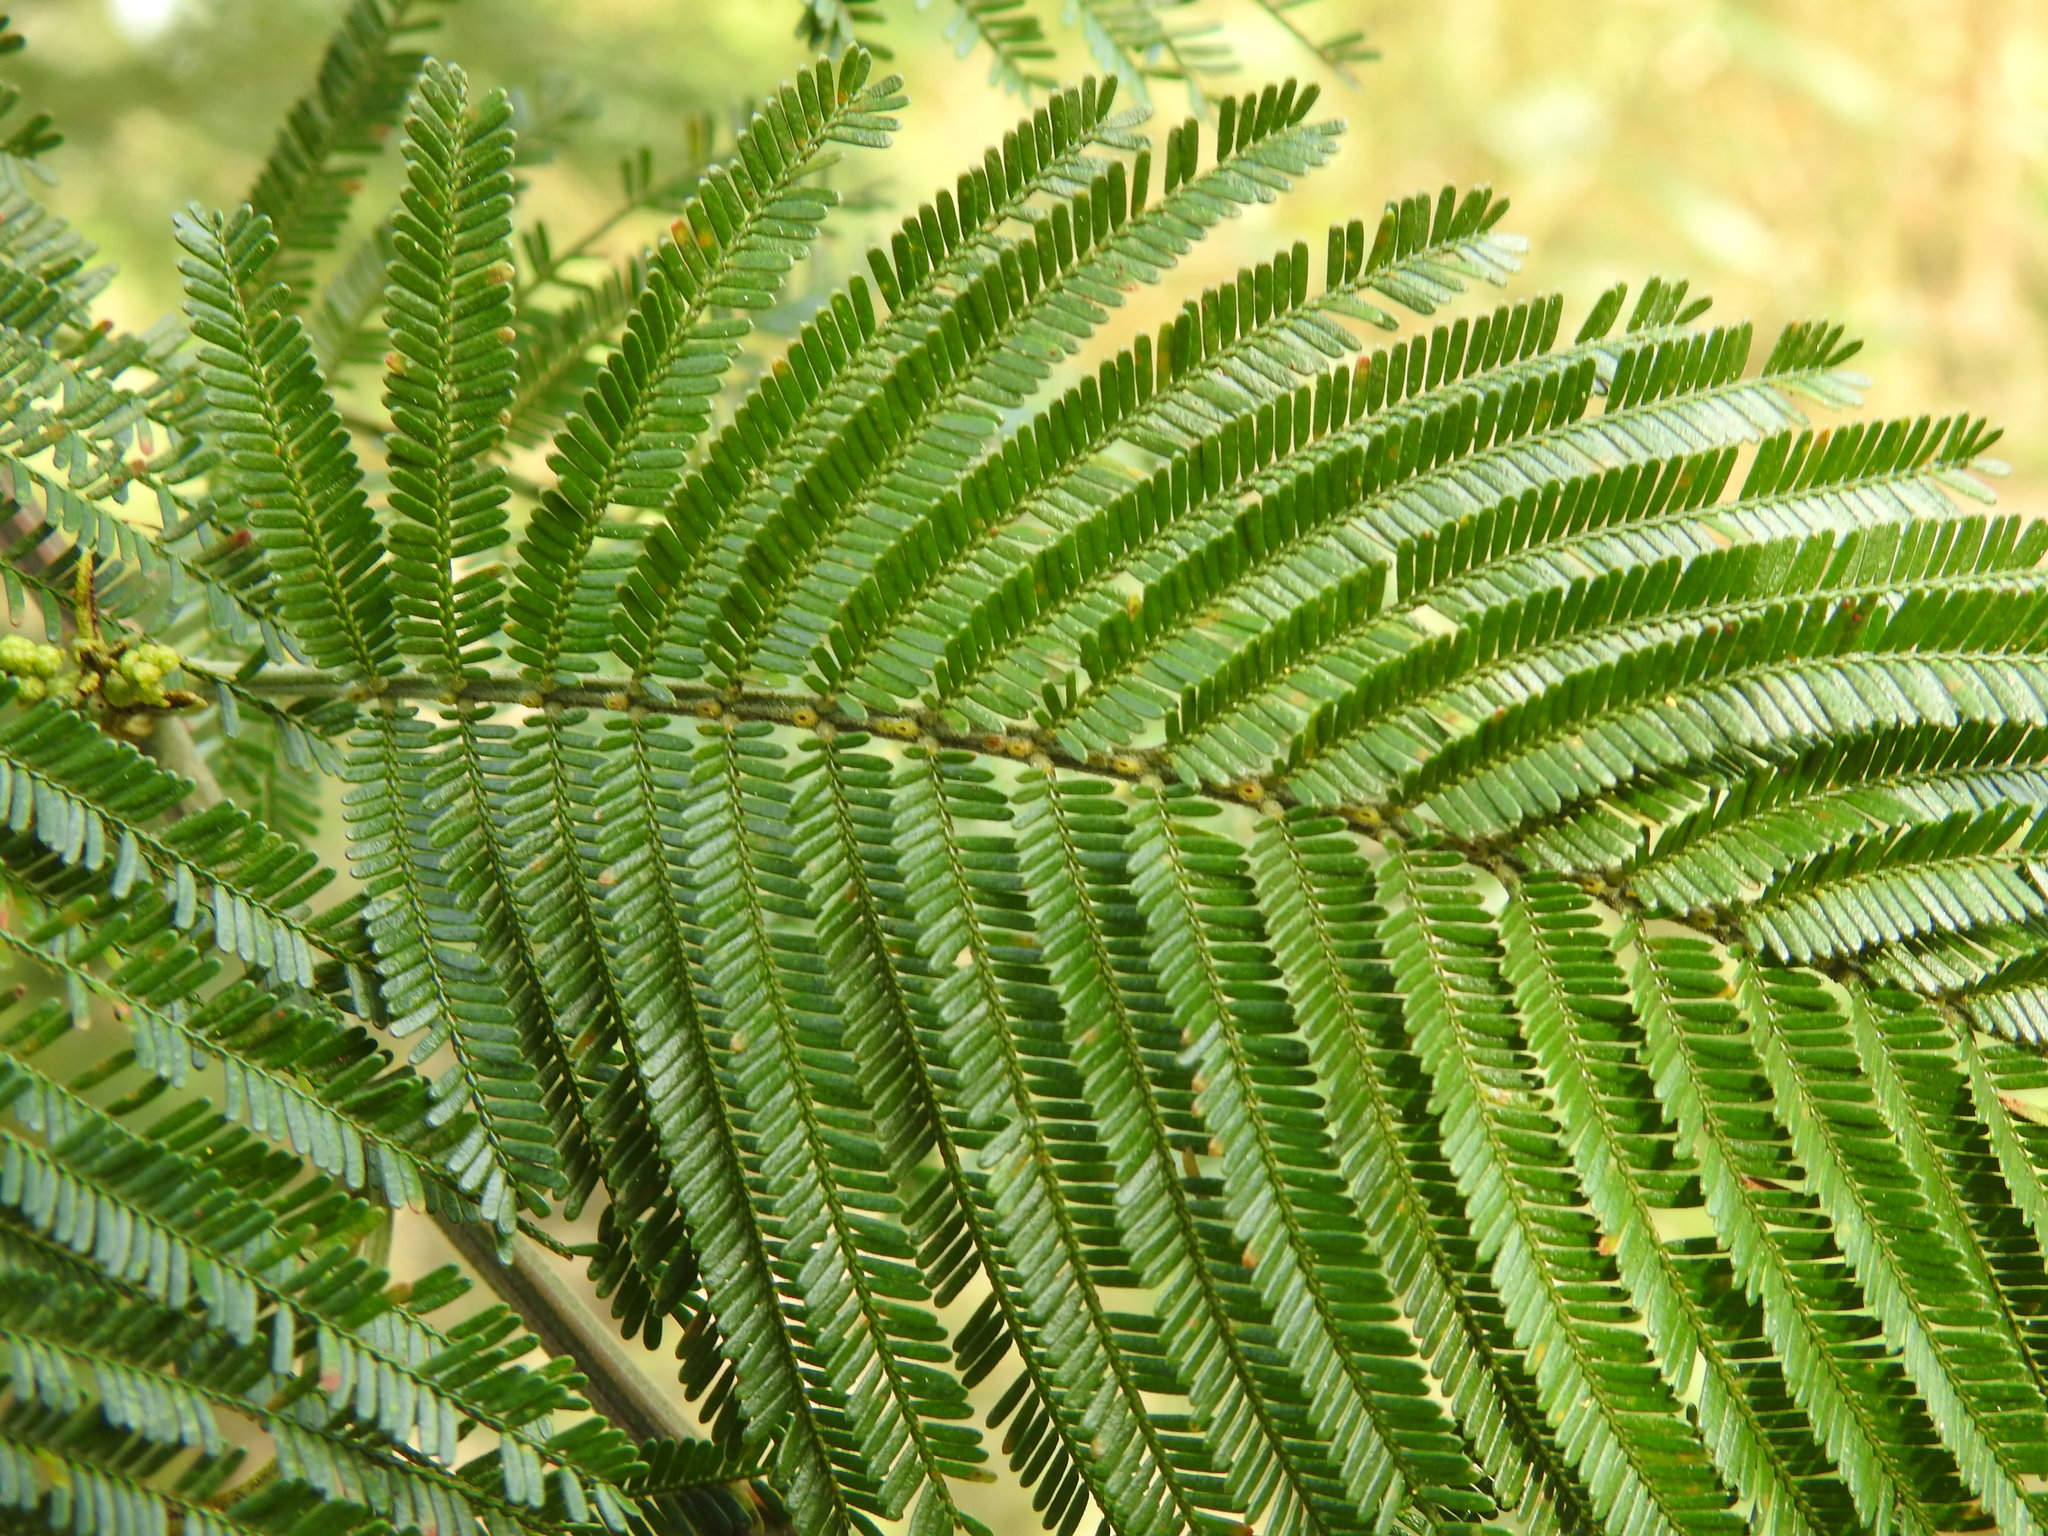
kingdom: Plantae
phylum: Tracheophyta
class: Magnoliopsida
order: Fabales
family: Fabaceae
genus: Acacia
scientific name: Acacia mearnsii
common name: Black wattle
